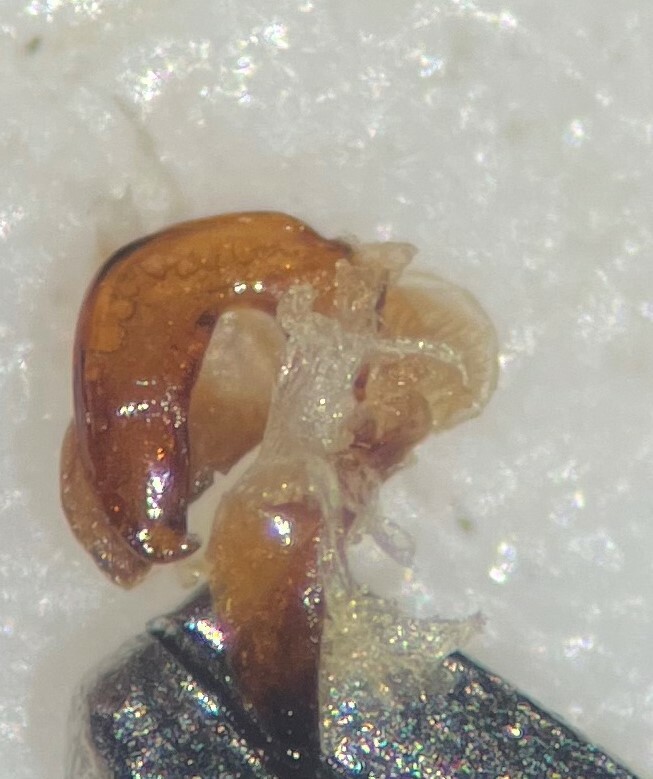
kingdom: Animalia
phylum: Arthropoda
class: Insecta
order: Coleoptera
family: Noteridae
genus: Hydrocanthus
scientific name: Hydrocanthus iricolor
